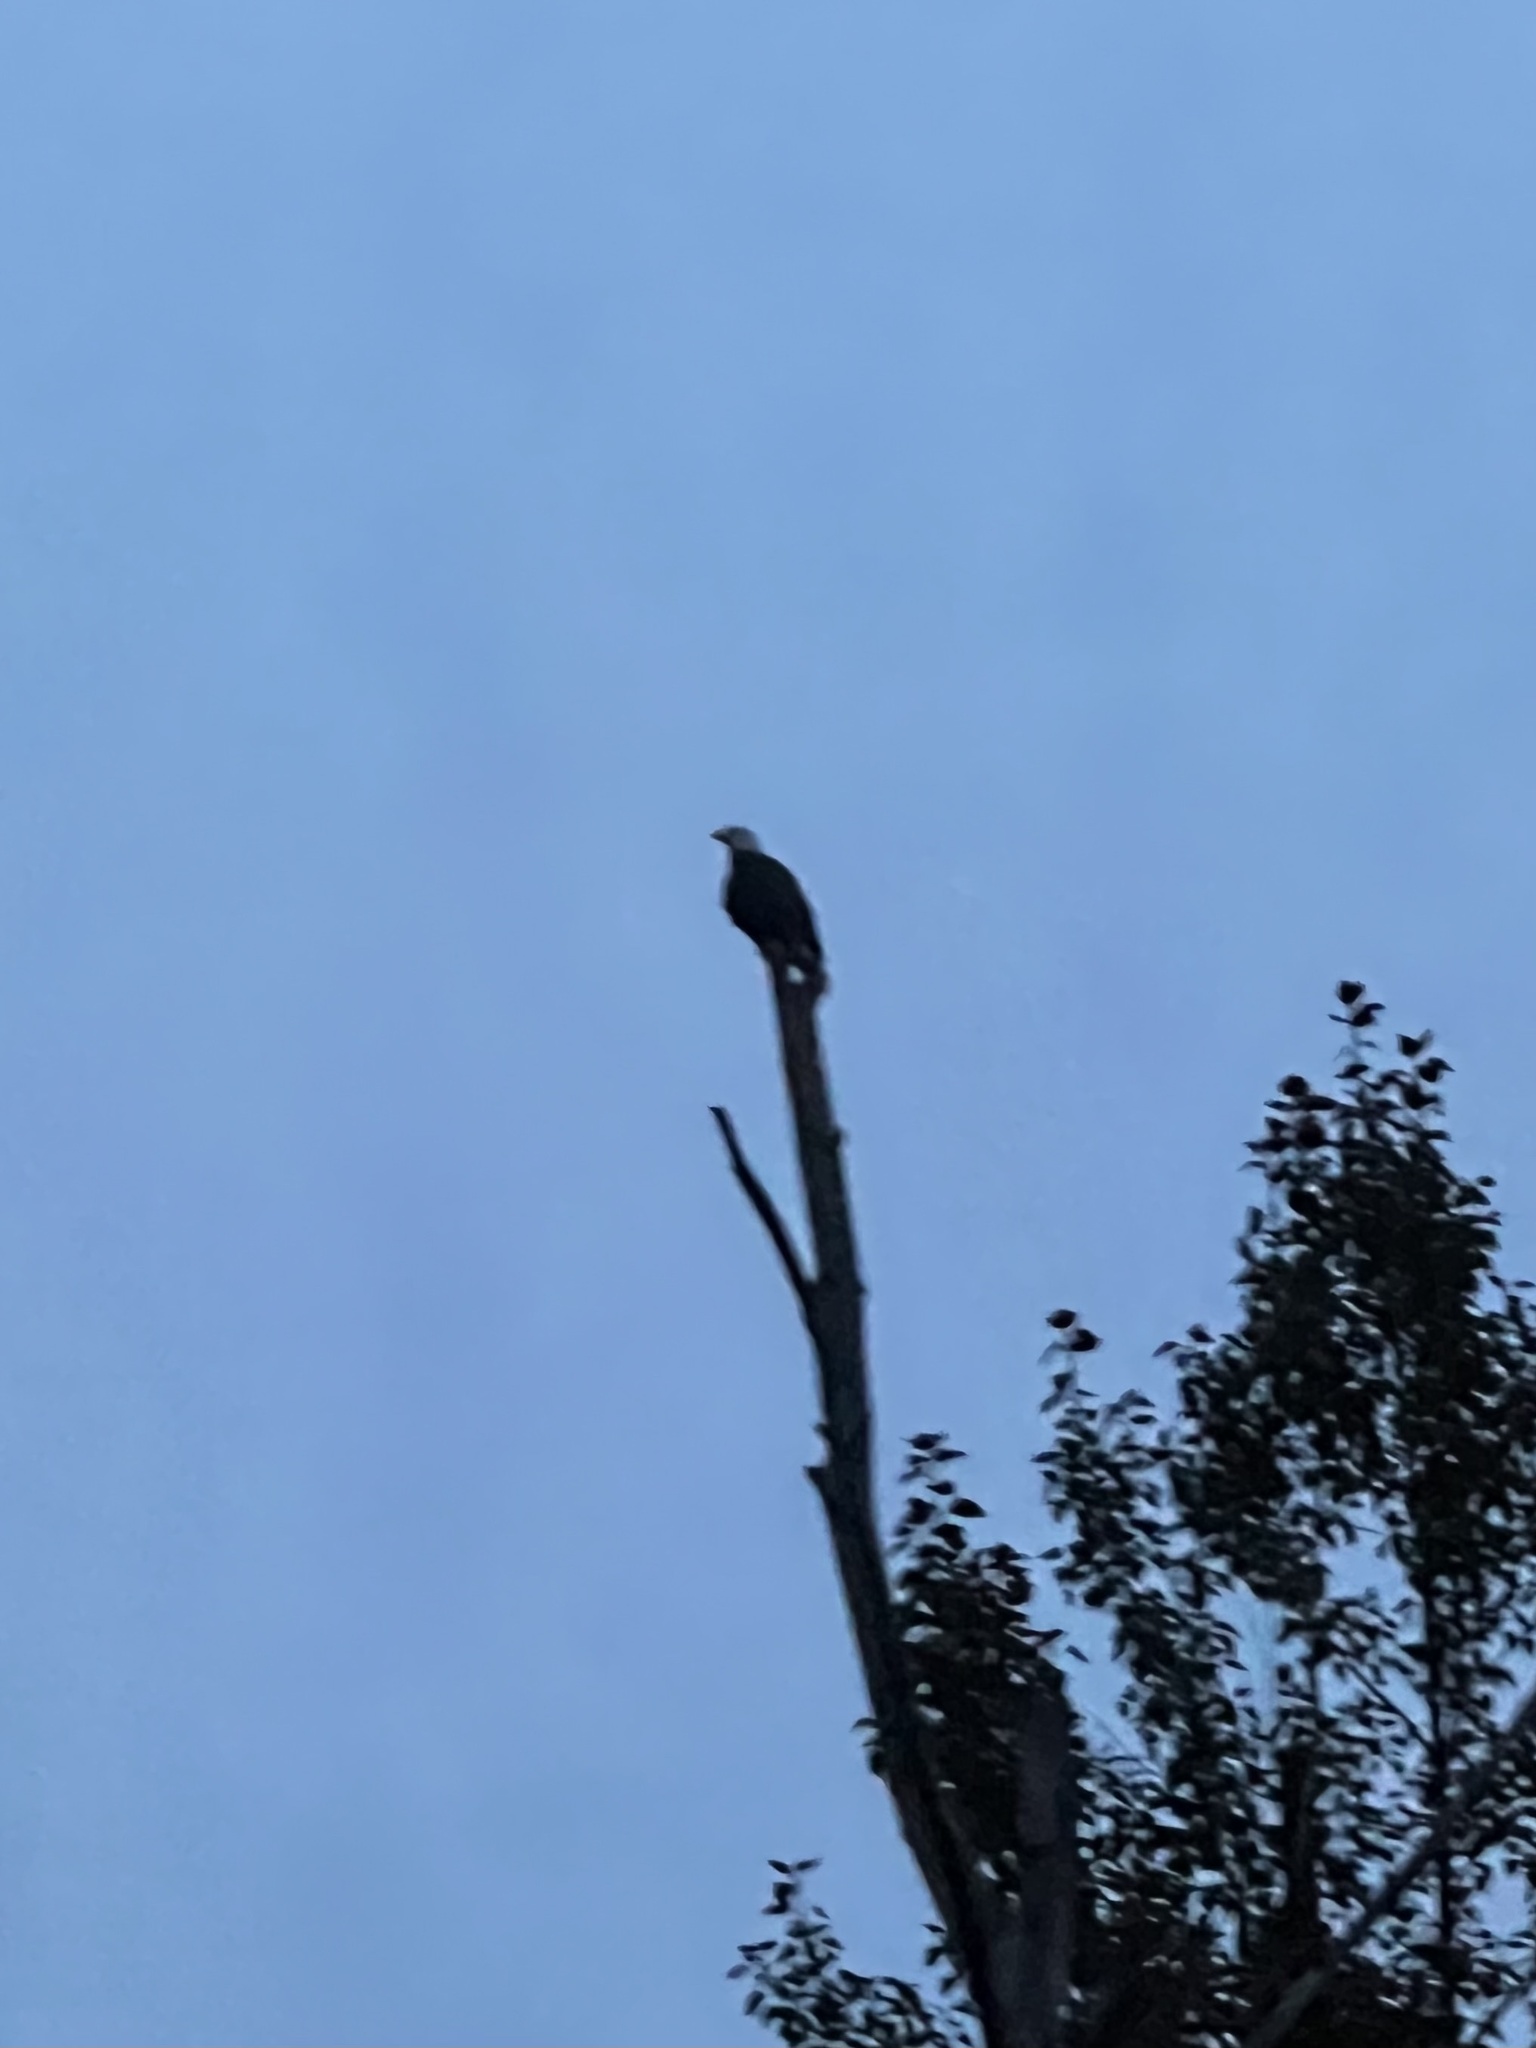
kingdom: Animalia
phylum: Chordata
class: Aves
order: Accipitriformes
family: Accipitridae
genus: Haliaeetus
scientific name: Haliaeetus leucocephalus
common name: Bald eagle
